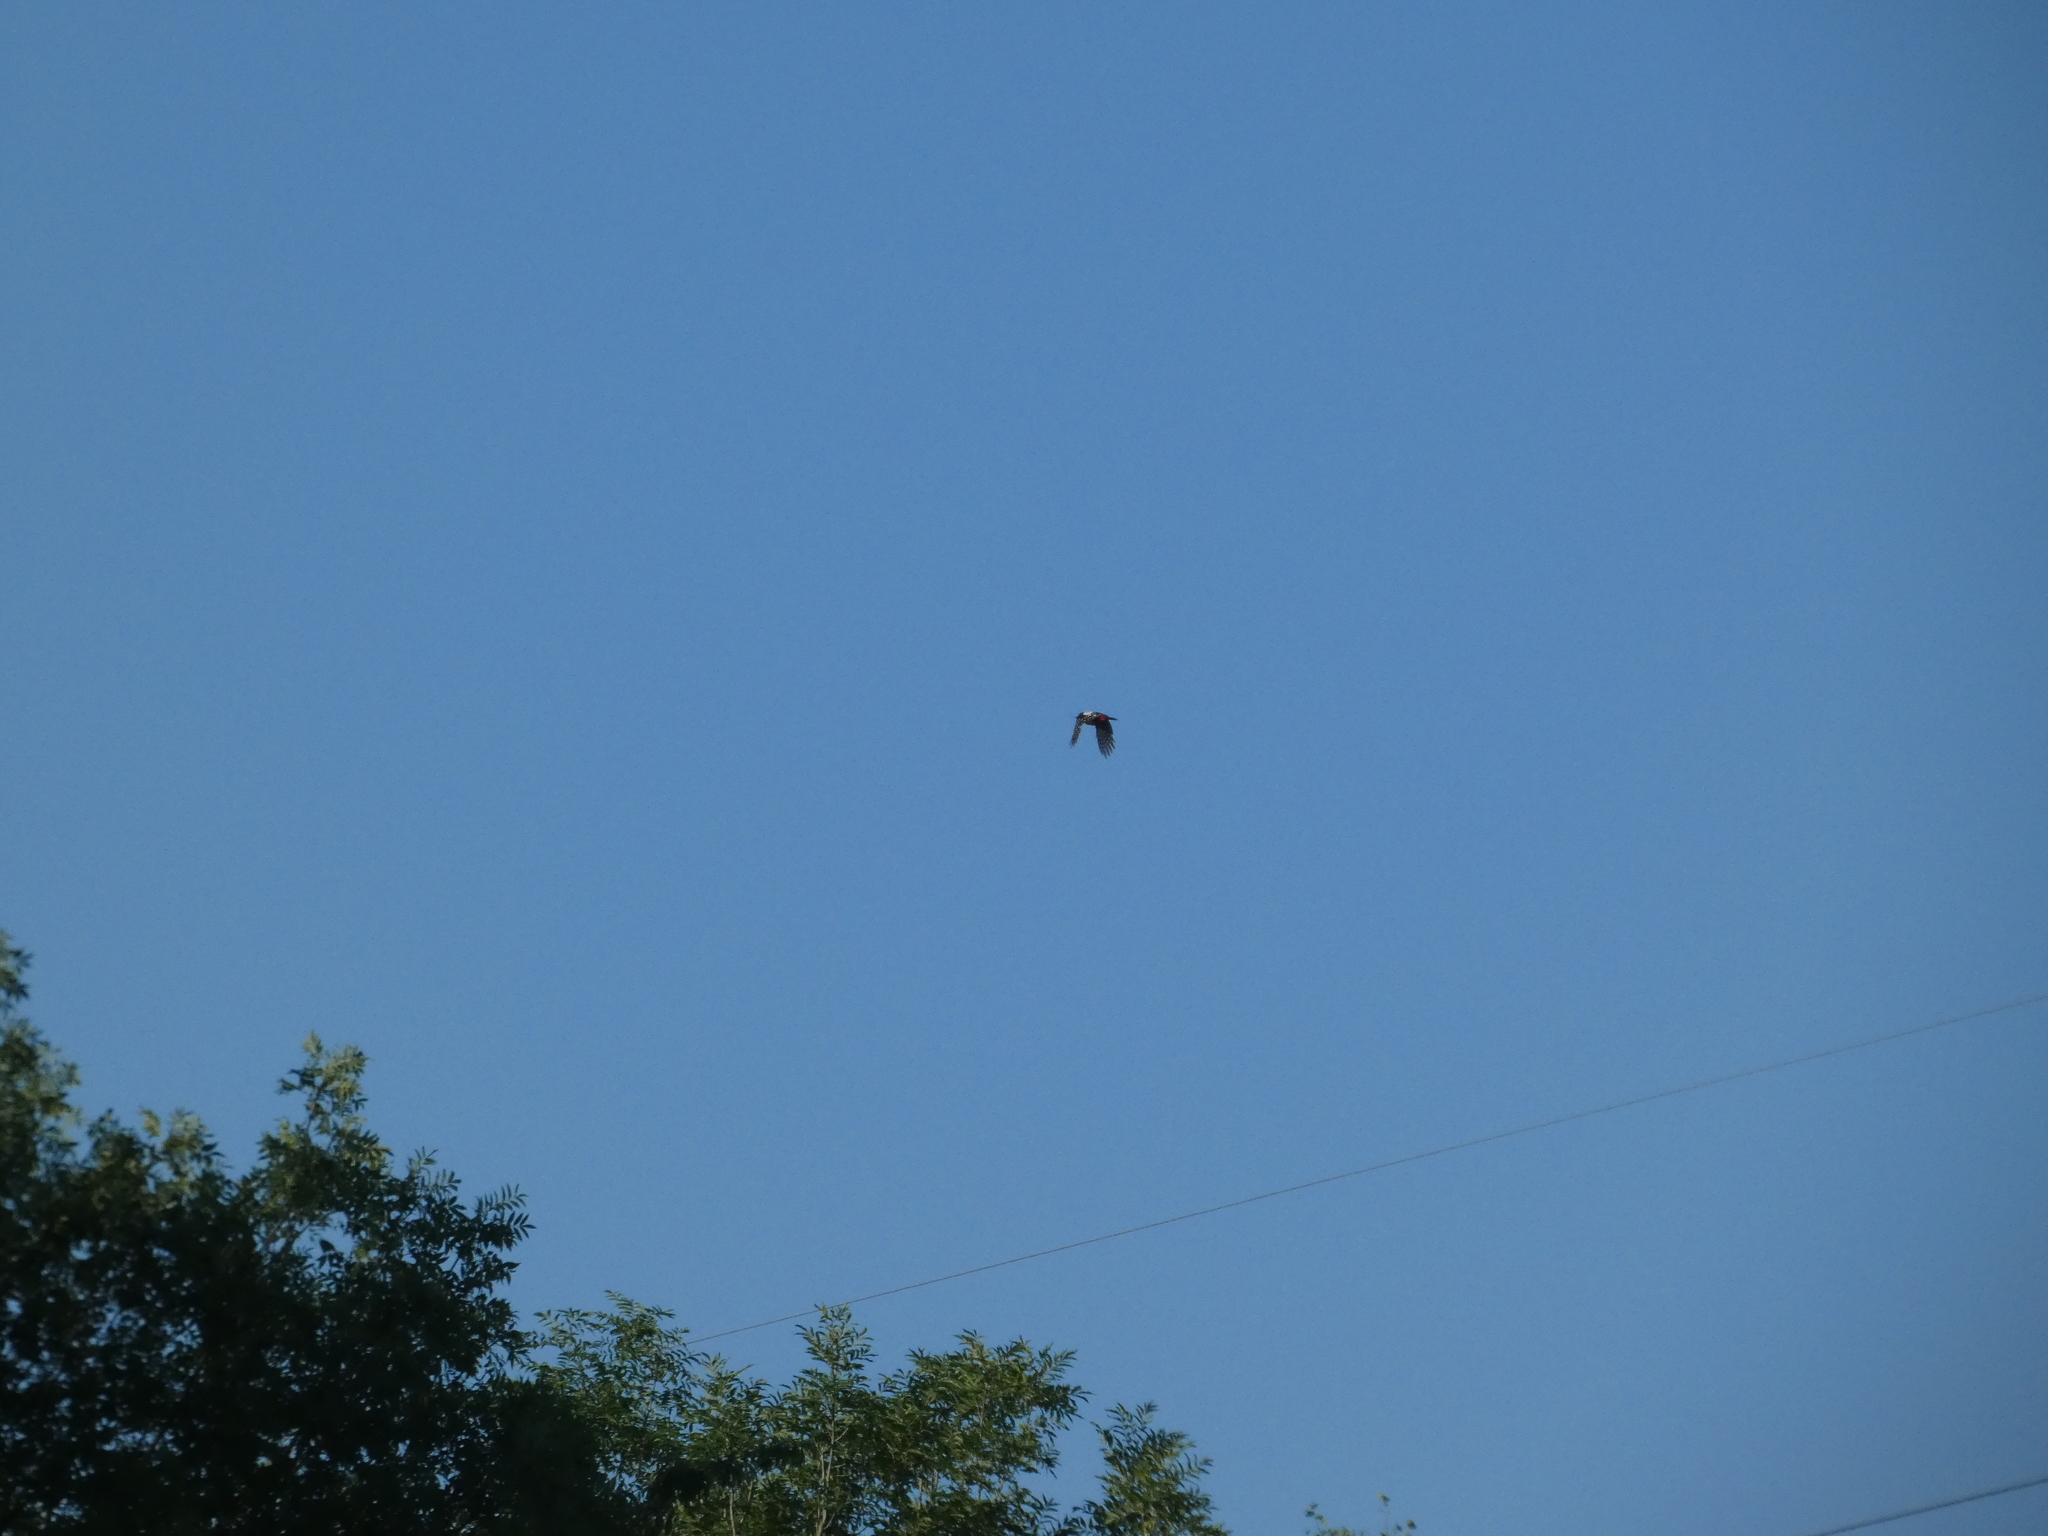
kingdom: Animalia
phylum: Chordata
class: Aves
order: Piciformes
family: Picidae
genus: Dendrocopos
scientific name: Dendrocopos major
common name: Great spotted woodpecker
